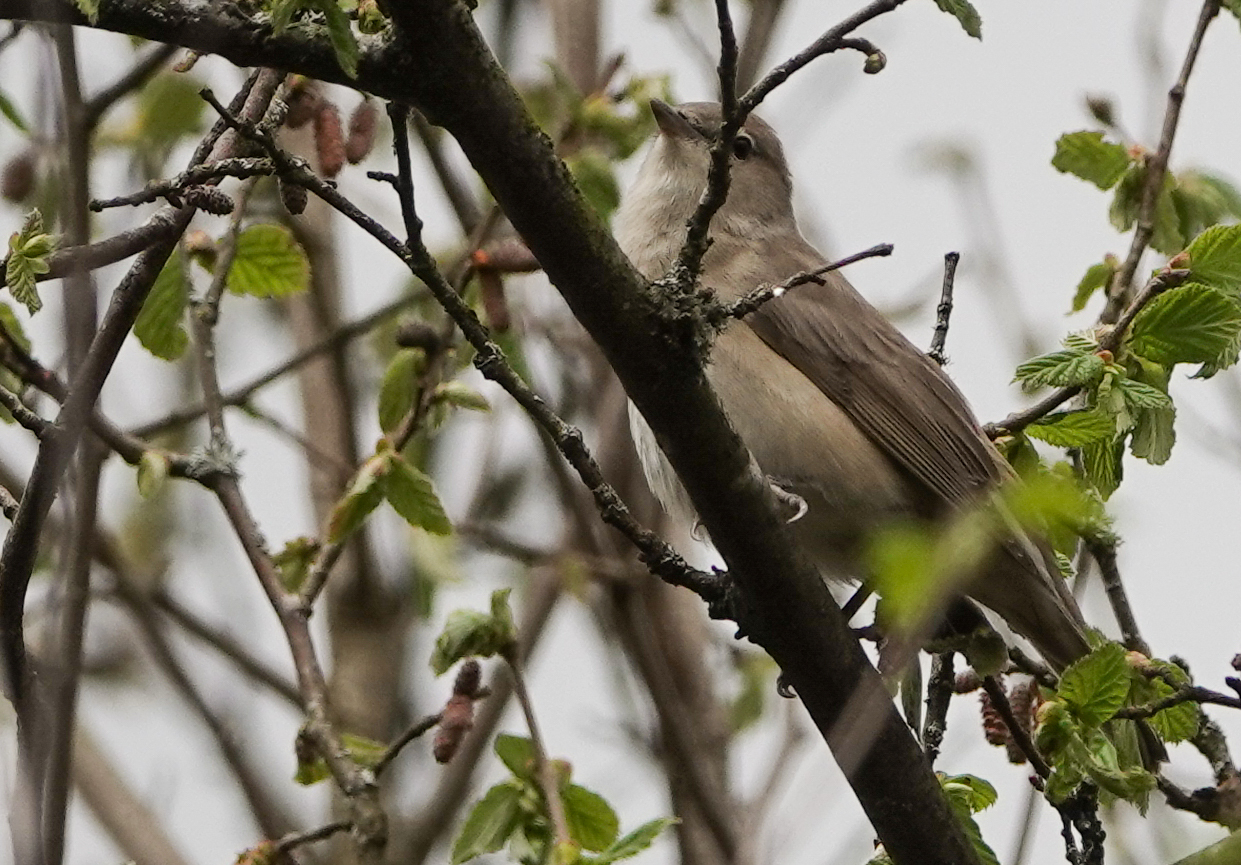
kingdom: Animalia
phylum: Chordata
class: Aves
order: Passeriformes
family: Sylviidae
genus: Sylvia
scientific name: Sylvia borin
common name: Garden warbler
